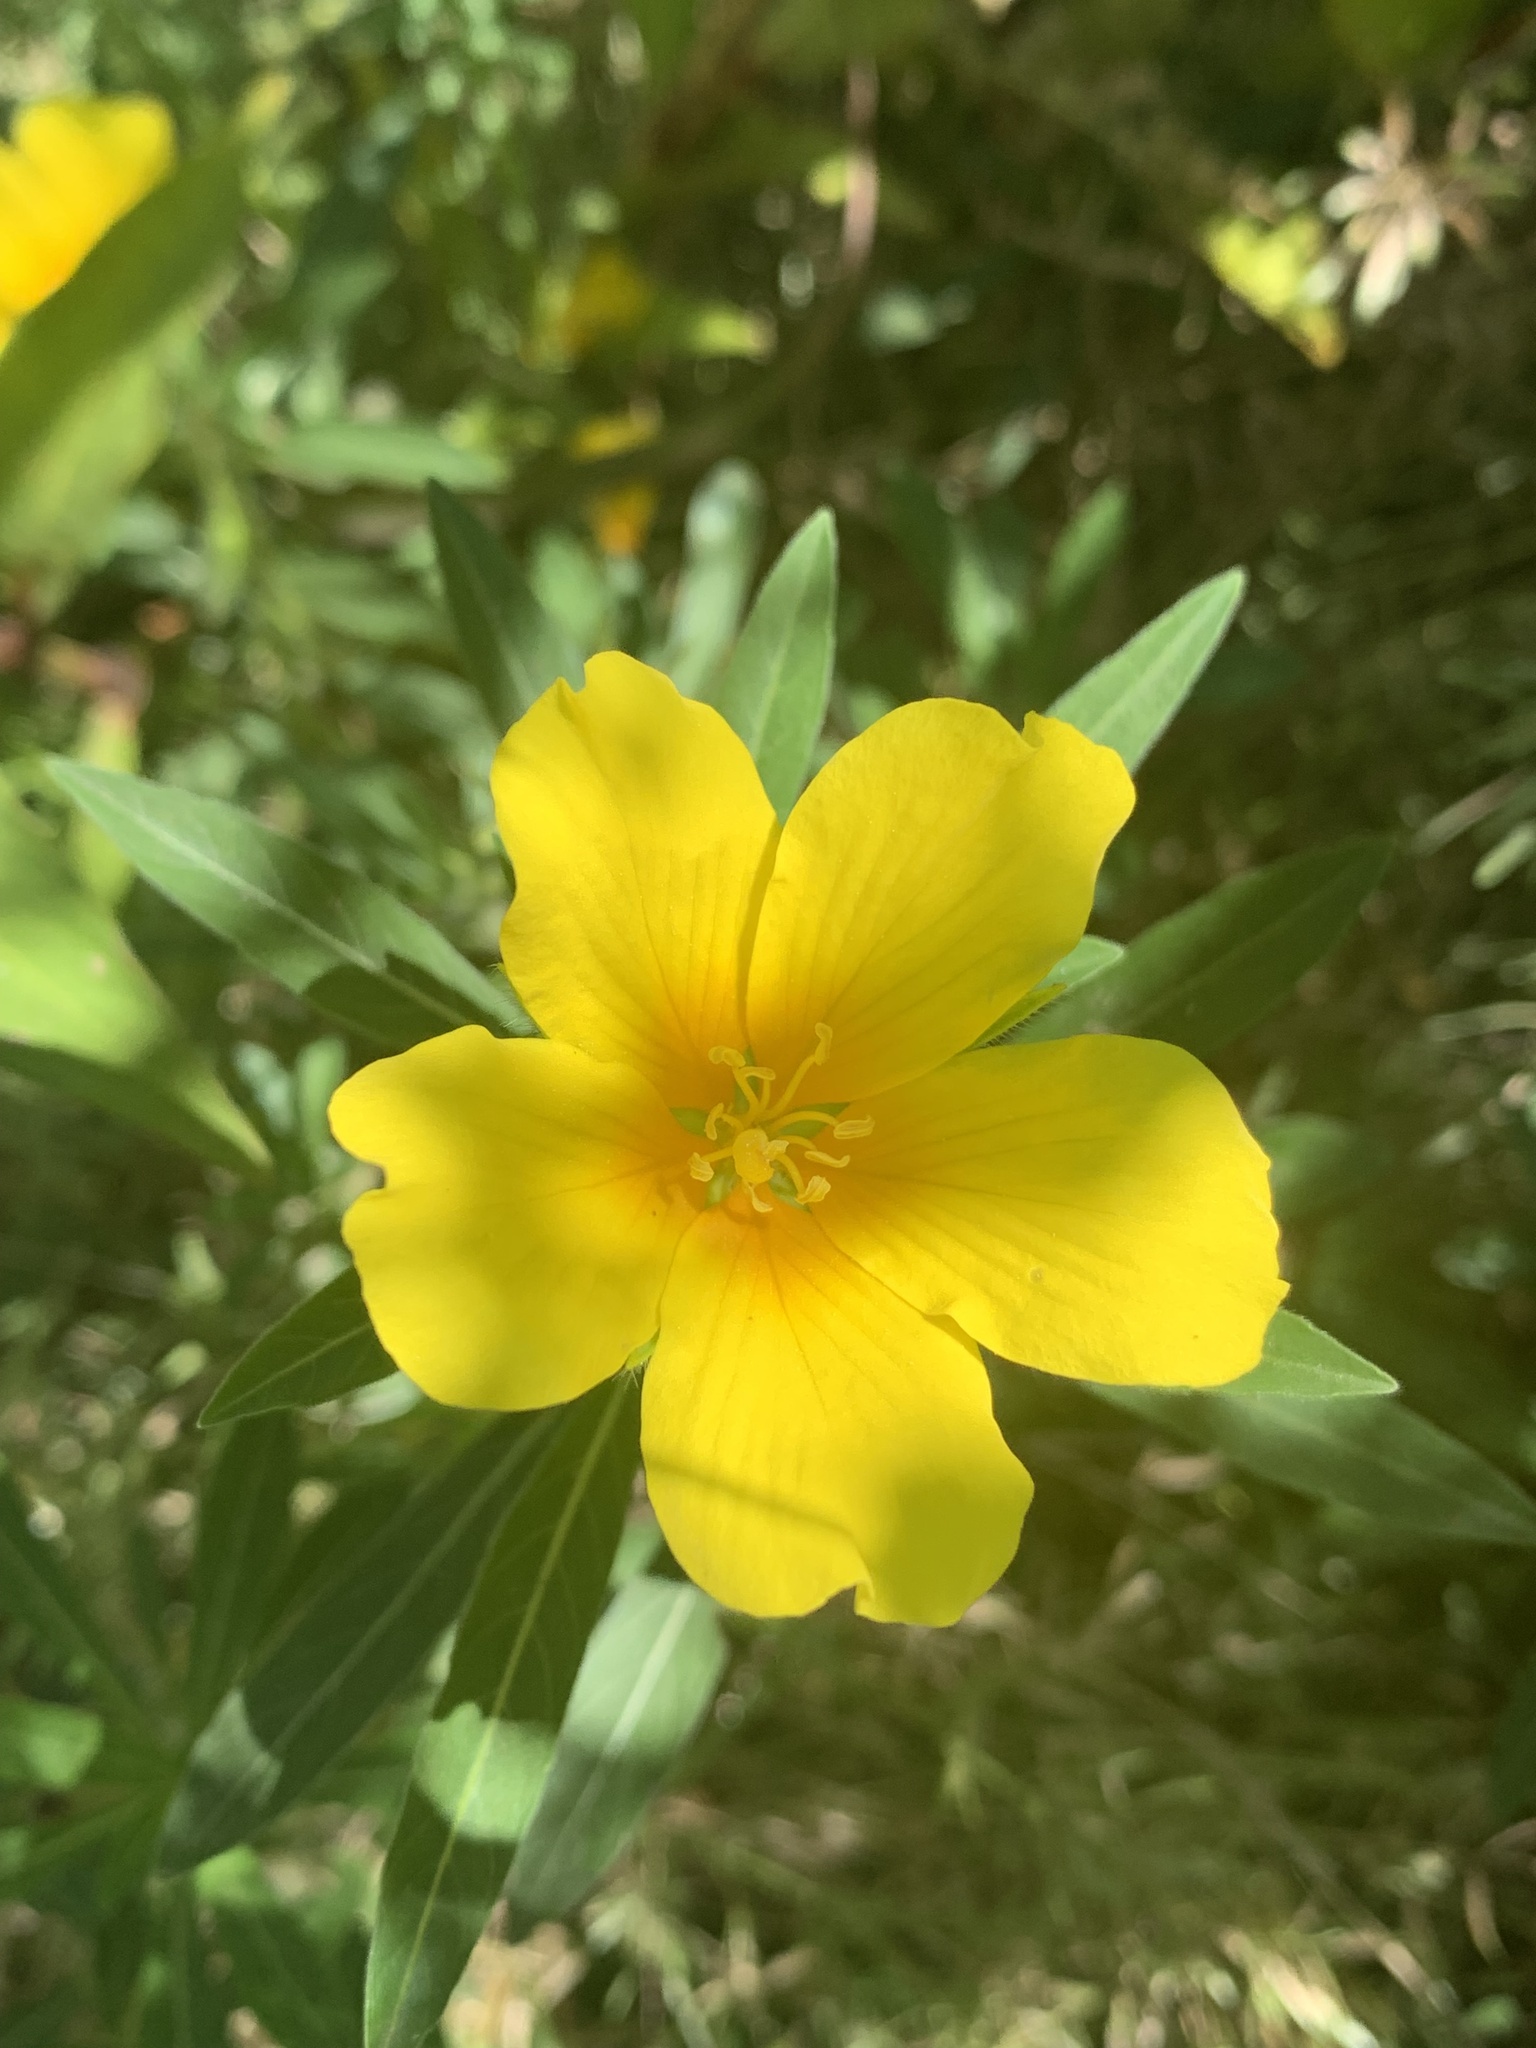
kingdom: Plantae
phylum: Tracheophyta
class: Magnoliopsida
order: Myrtales
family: Onagraceae
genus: Ludwigia
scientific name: Ludwigia hexapetala
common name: Water-primrose
